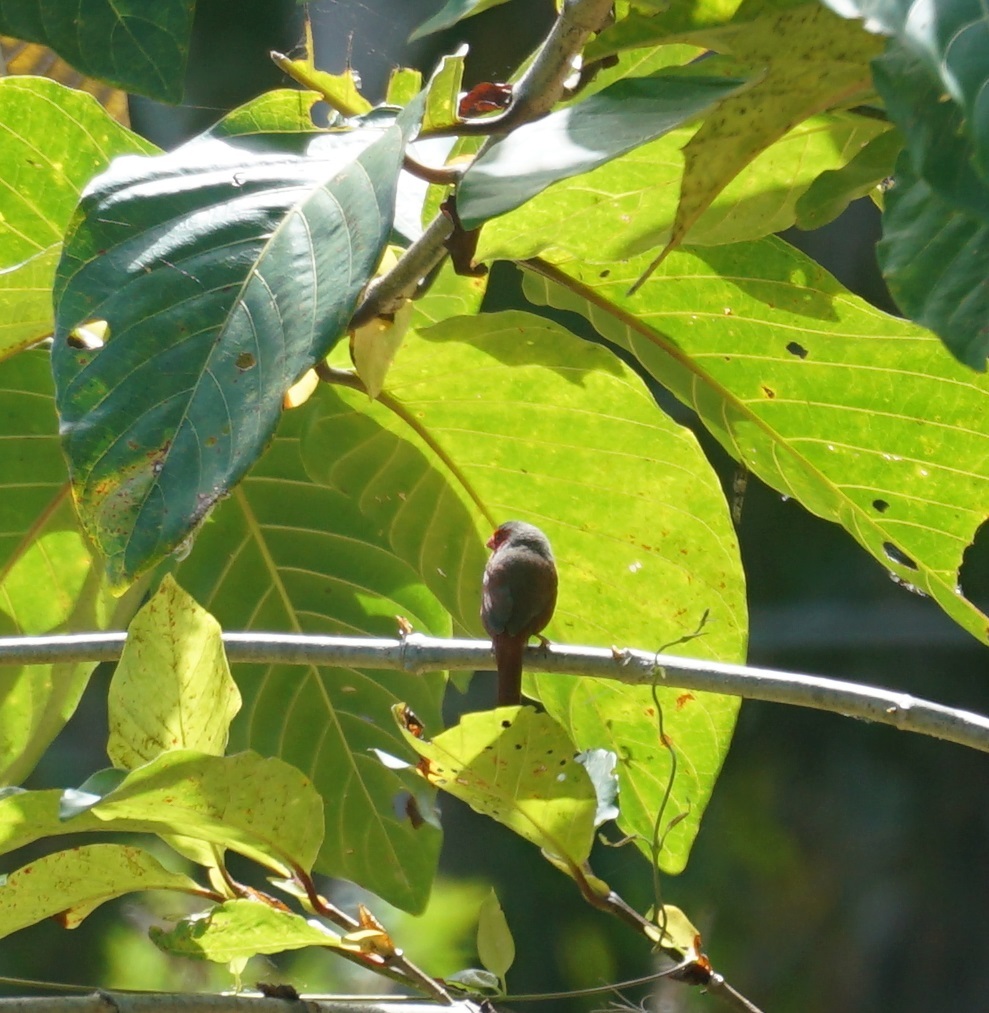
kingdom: Animalia
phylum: Chordata
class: Aves
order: Passeriformes
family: Estrildidae
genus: Neochmia
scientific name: Neochmia phaeton
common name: Crimson finch
